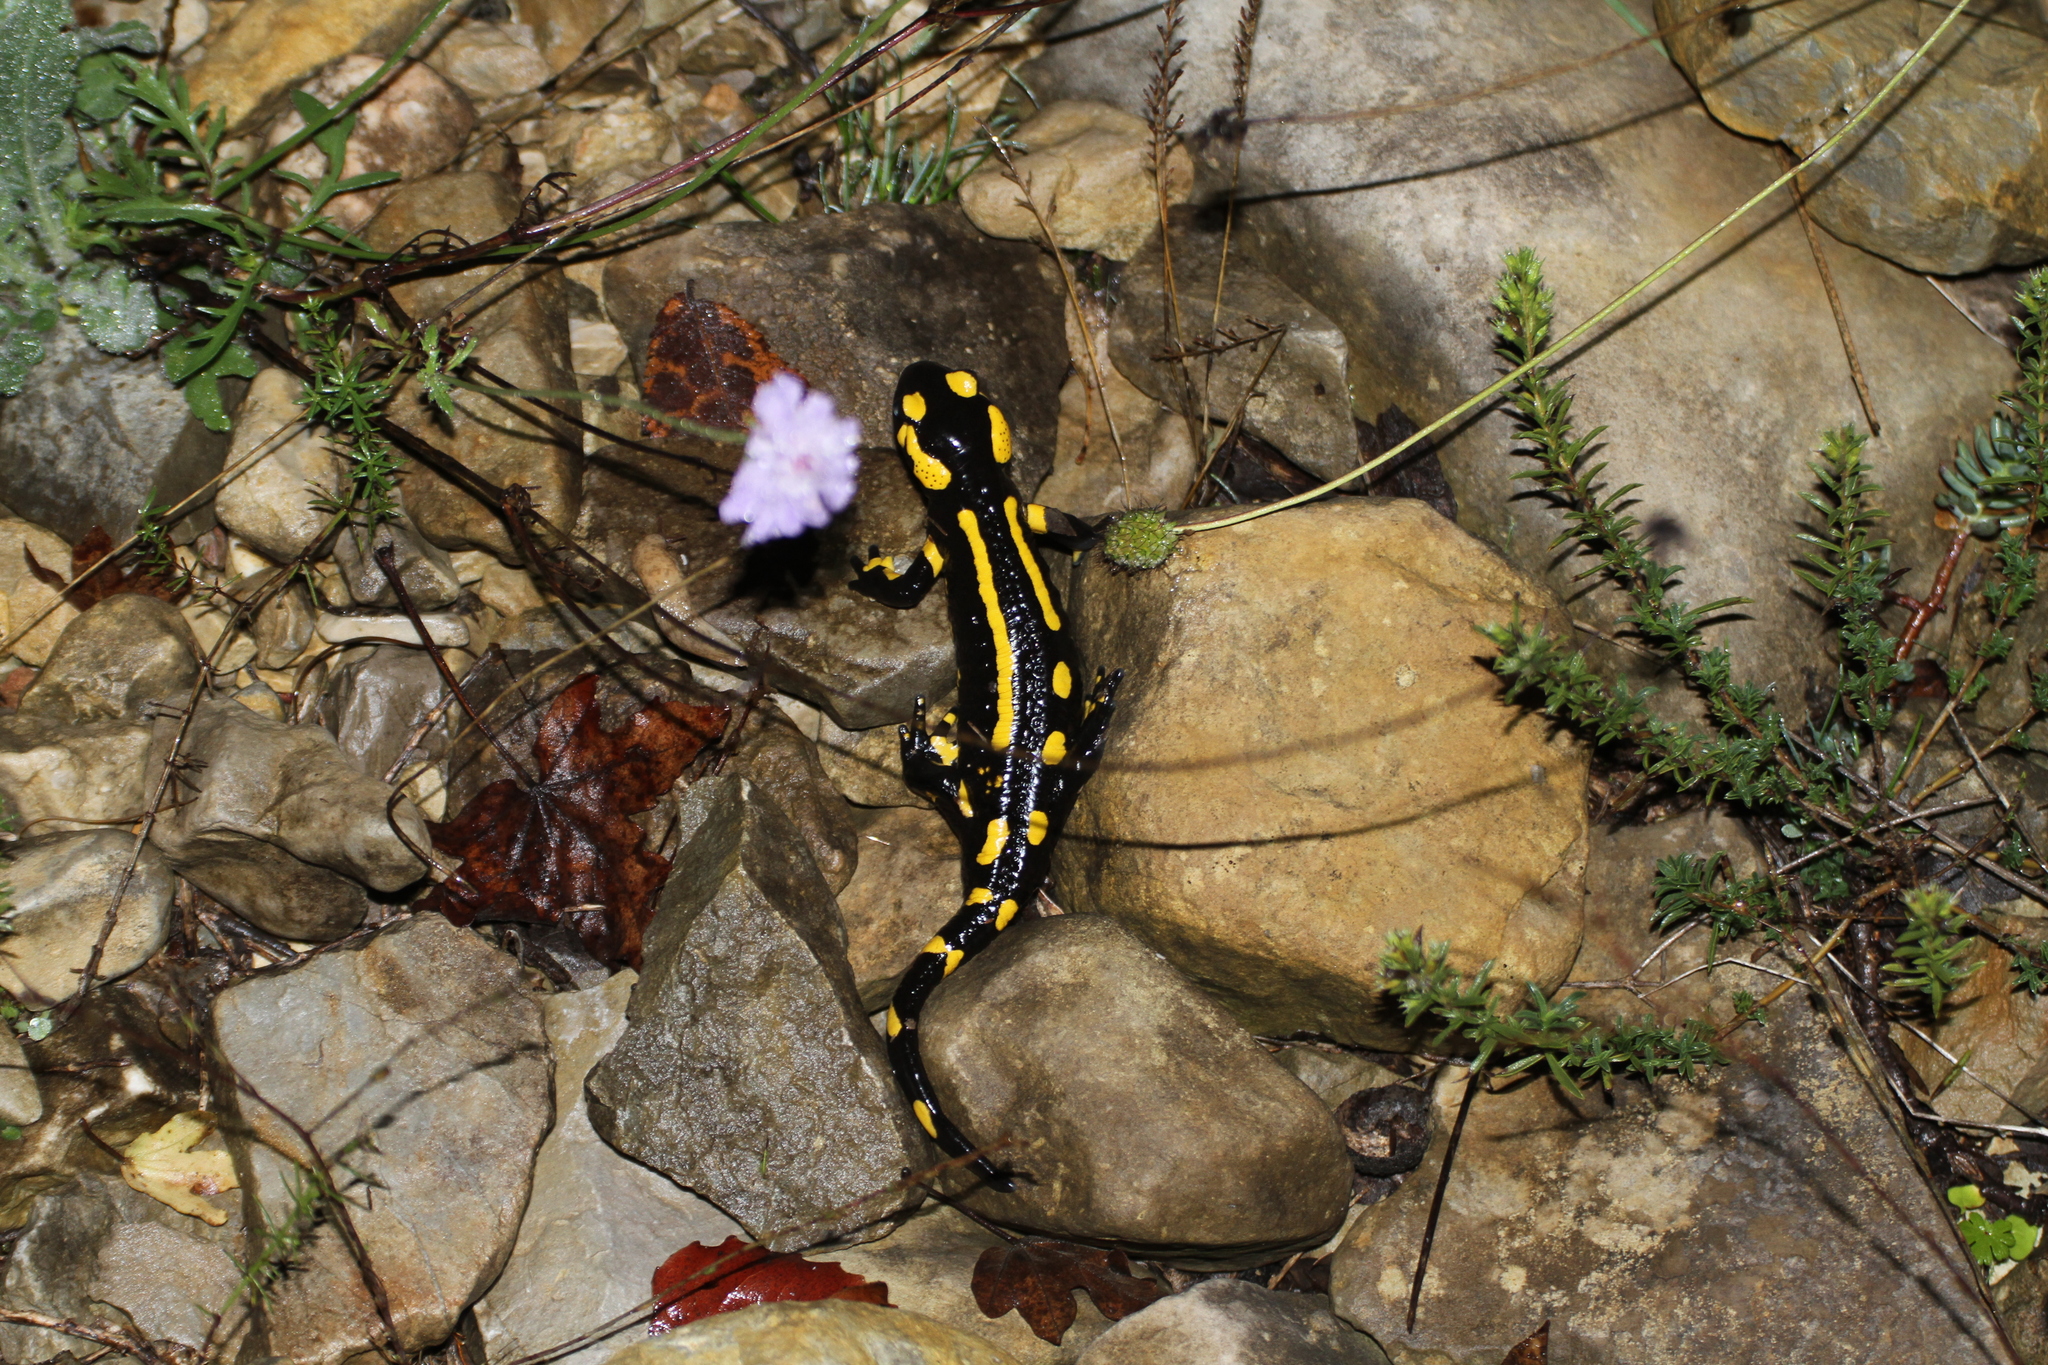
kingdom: Animalia
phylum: Chordata
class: Amphibia
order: Caudata
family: Salamandridae
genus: Salamandra
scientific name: Salamandra salamandra
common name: Fire salamander
